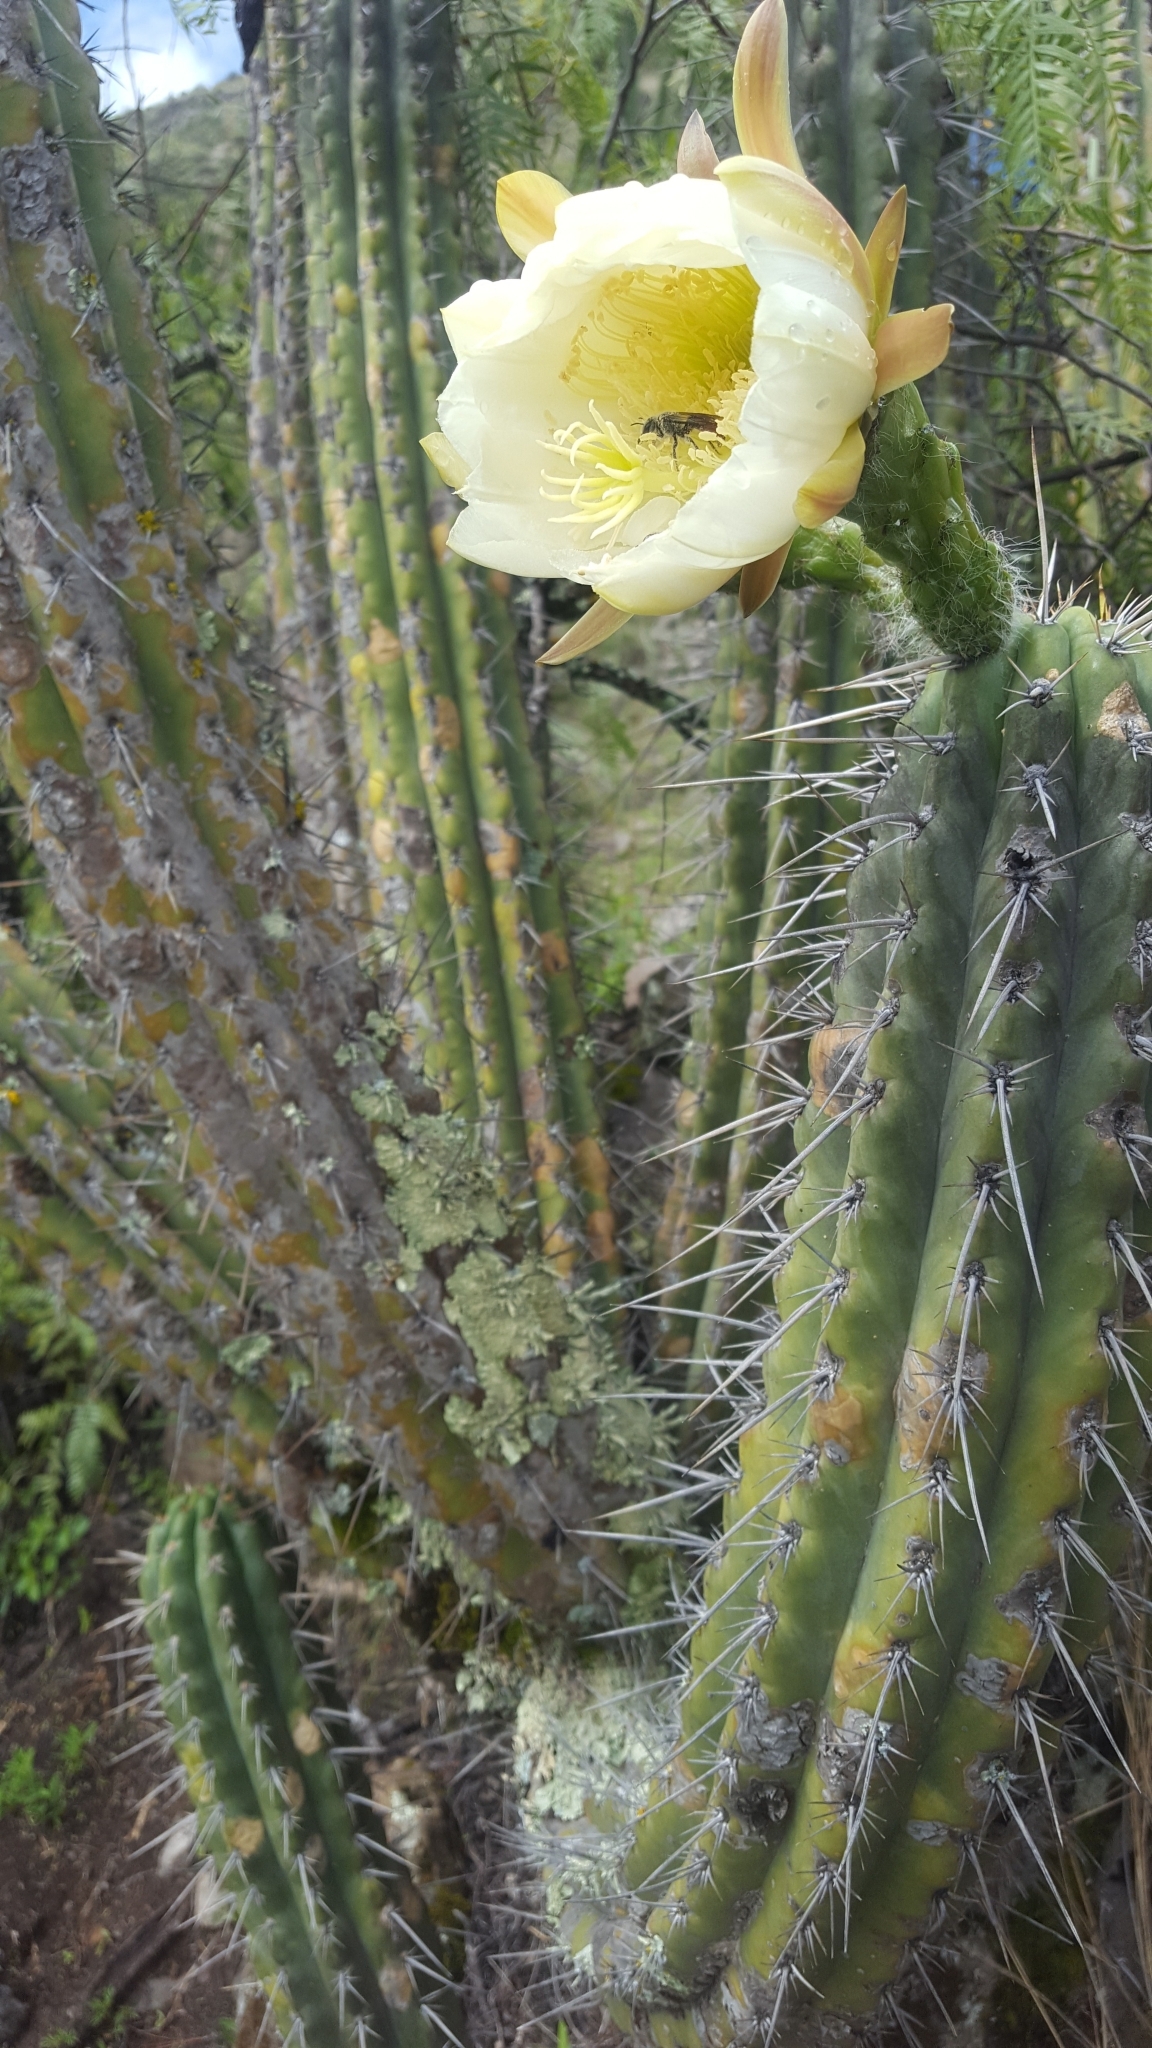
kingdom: Plantae
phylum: Tracheophyta
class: Magnoliopsida
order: Caryophyllales
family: Cactaceae
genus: Trichocereus
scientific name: Trichocereus macrogonus
